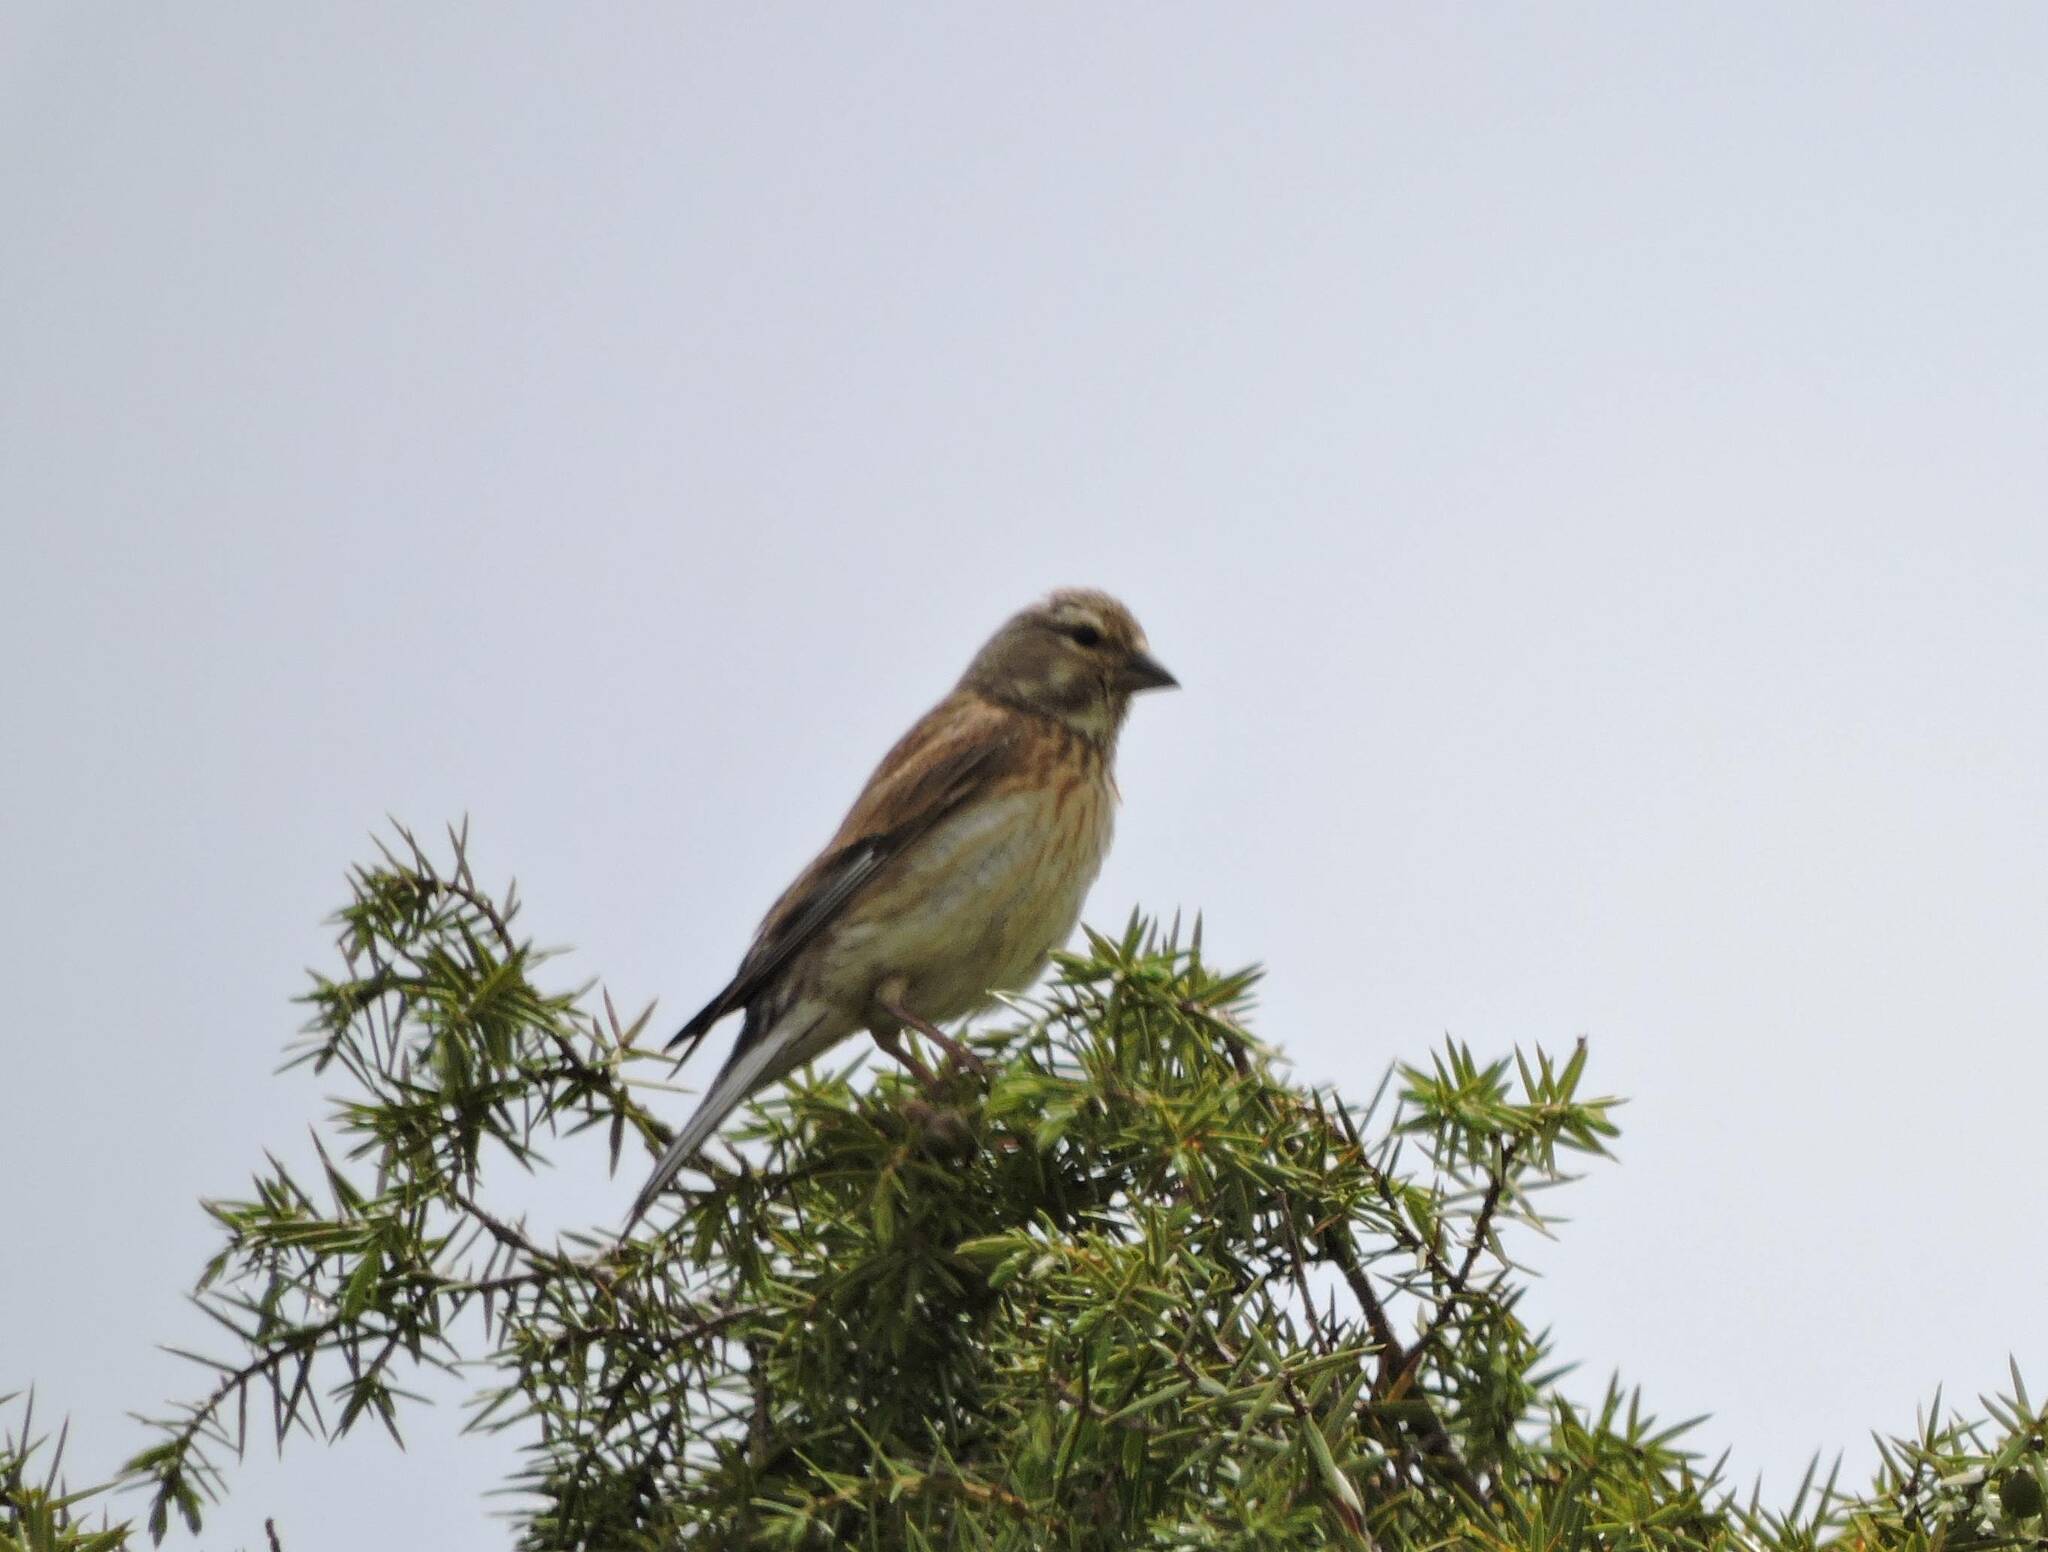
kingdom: Animalia
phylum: Chordata
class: Aves
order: Passeriformes
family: Fringillidae
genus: Linaria
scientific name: Linaria cannabina
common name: Common linnet
